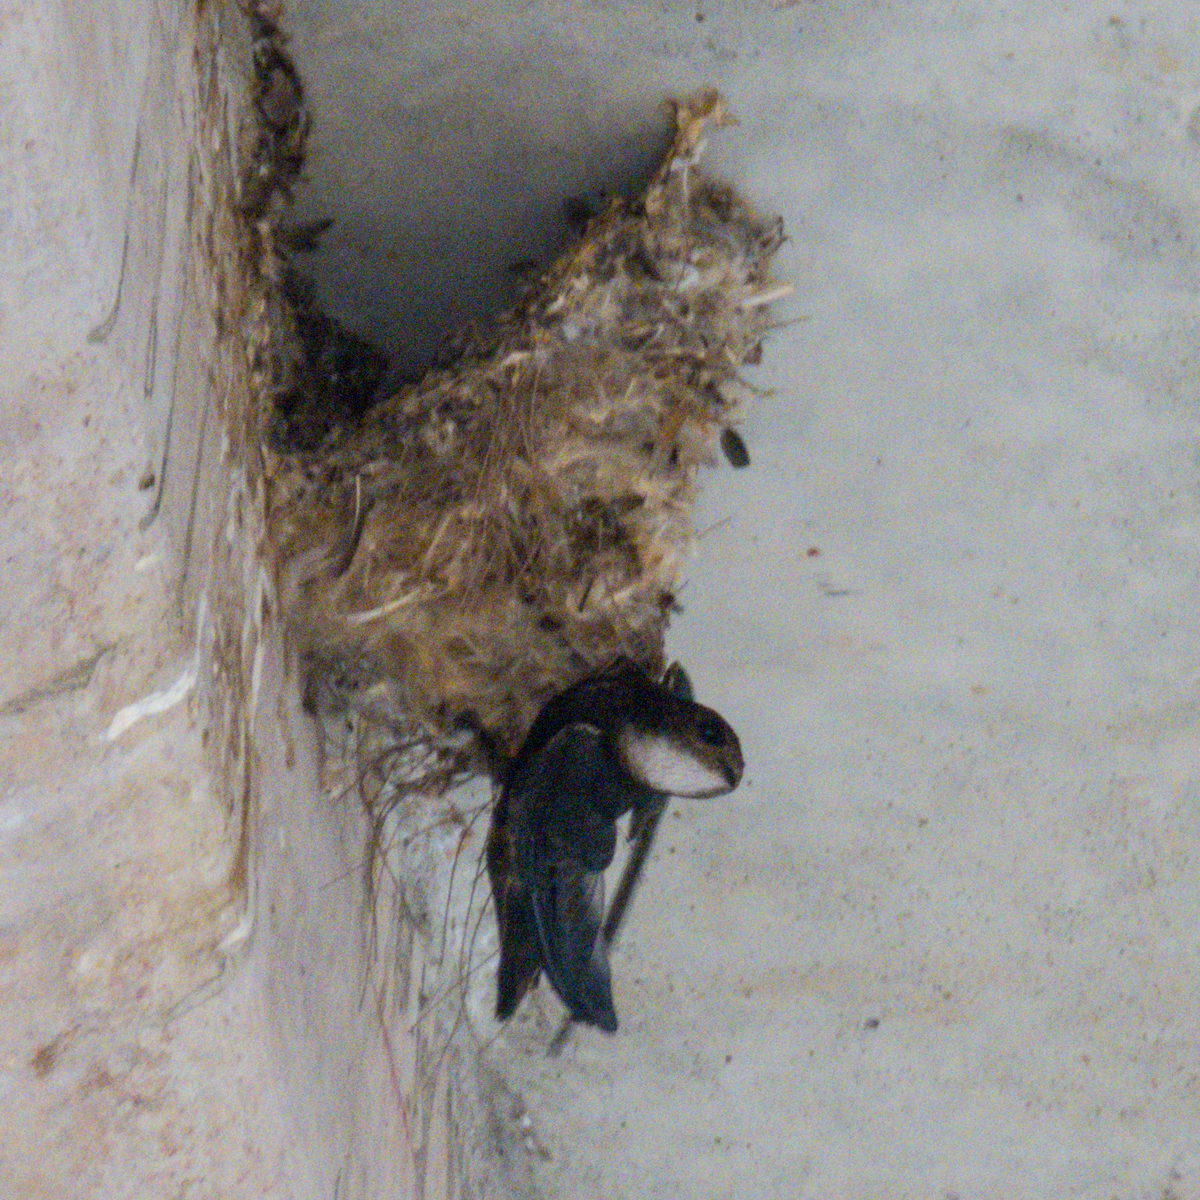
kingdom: Animalia
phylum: Chordata
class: Aves
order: Apodiformes
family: Apodidae
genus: Apus
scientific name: Apus nipalensis
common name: House swift
